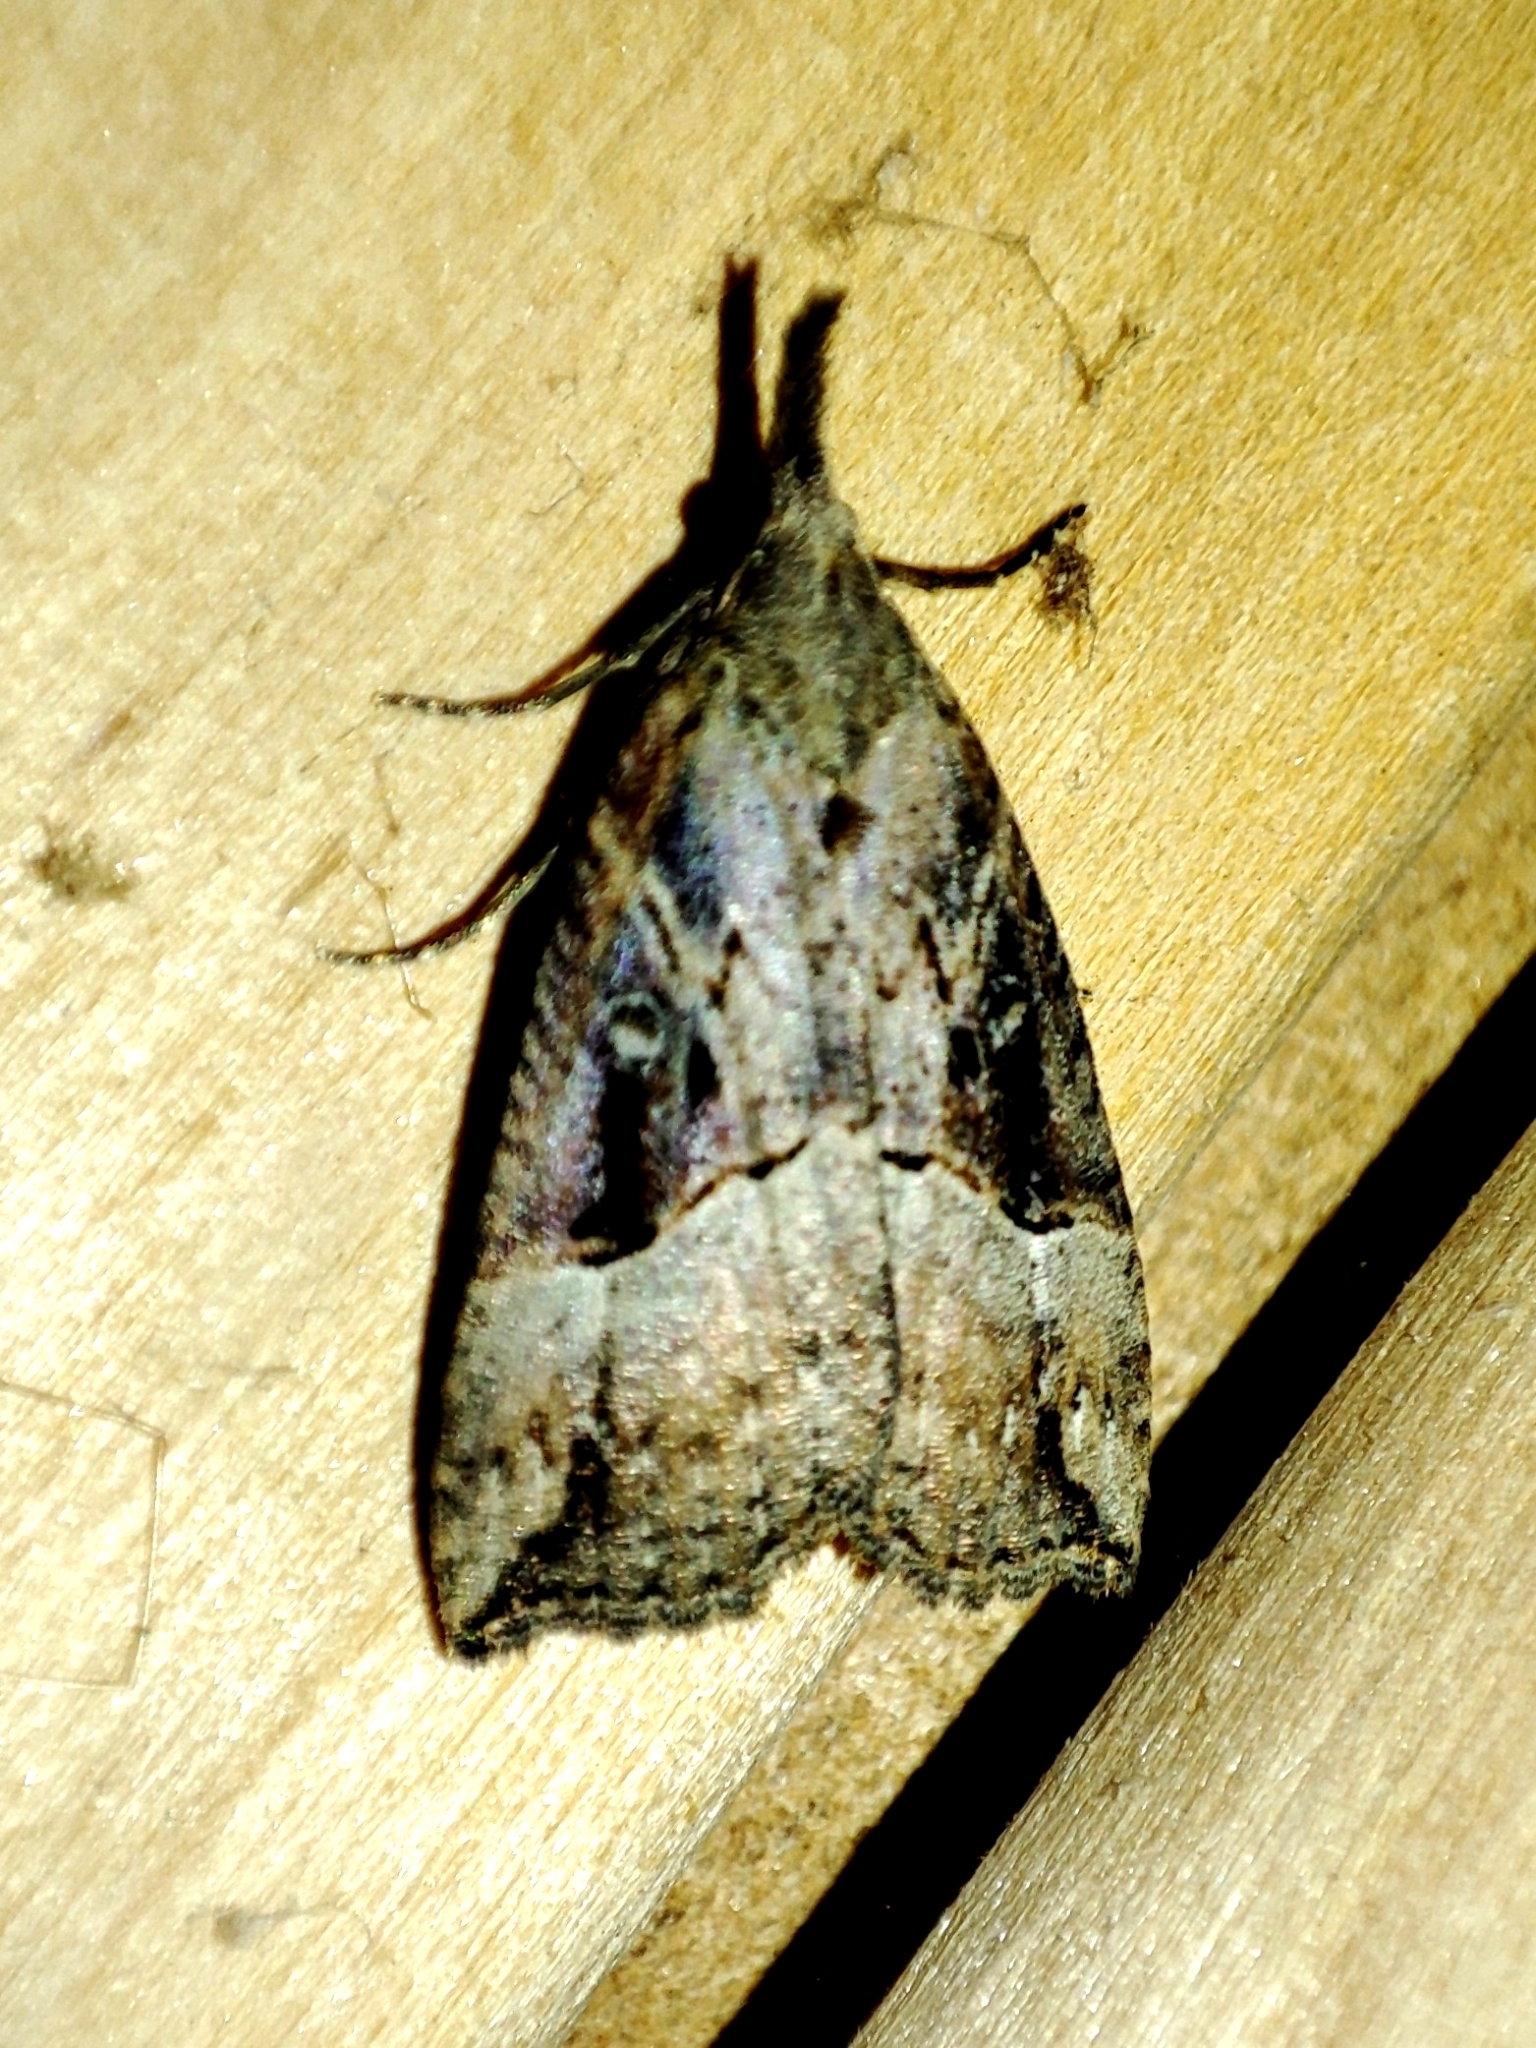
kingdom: Animalia
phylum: Arthropoda
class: Insecta
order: Lepidoptera
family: Erebidae
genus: Hypena
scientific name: Hypena rostralis
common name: Buttoned snout
